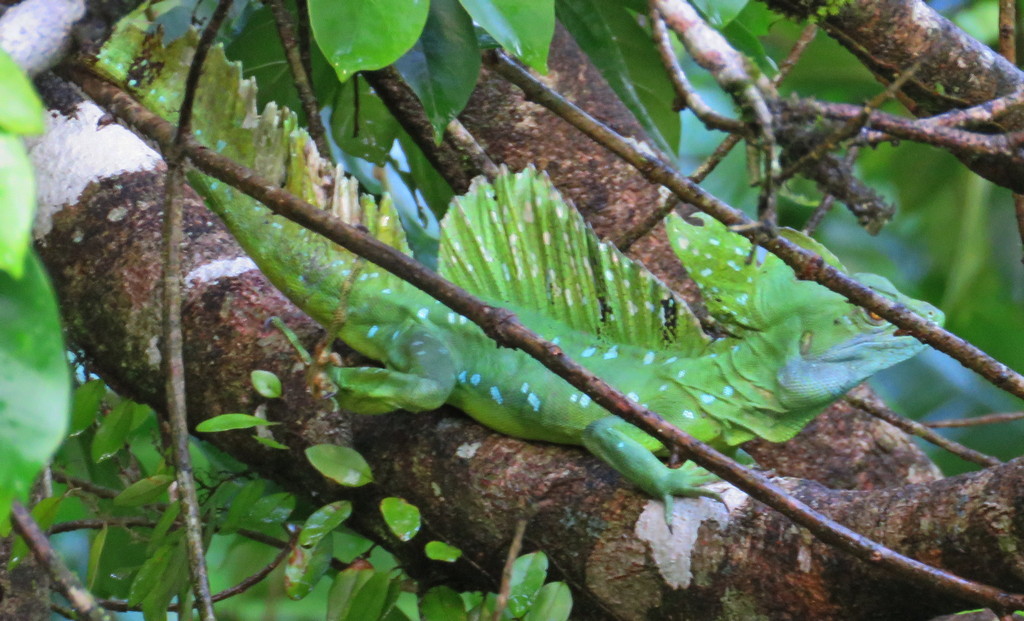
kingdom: Animalia
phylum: Chordata
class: Squamata
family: Corytophanidae
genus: Basiliscus
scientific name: Basiliscus plumifrons
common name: Green basilisk
